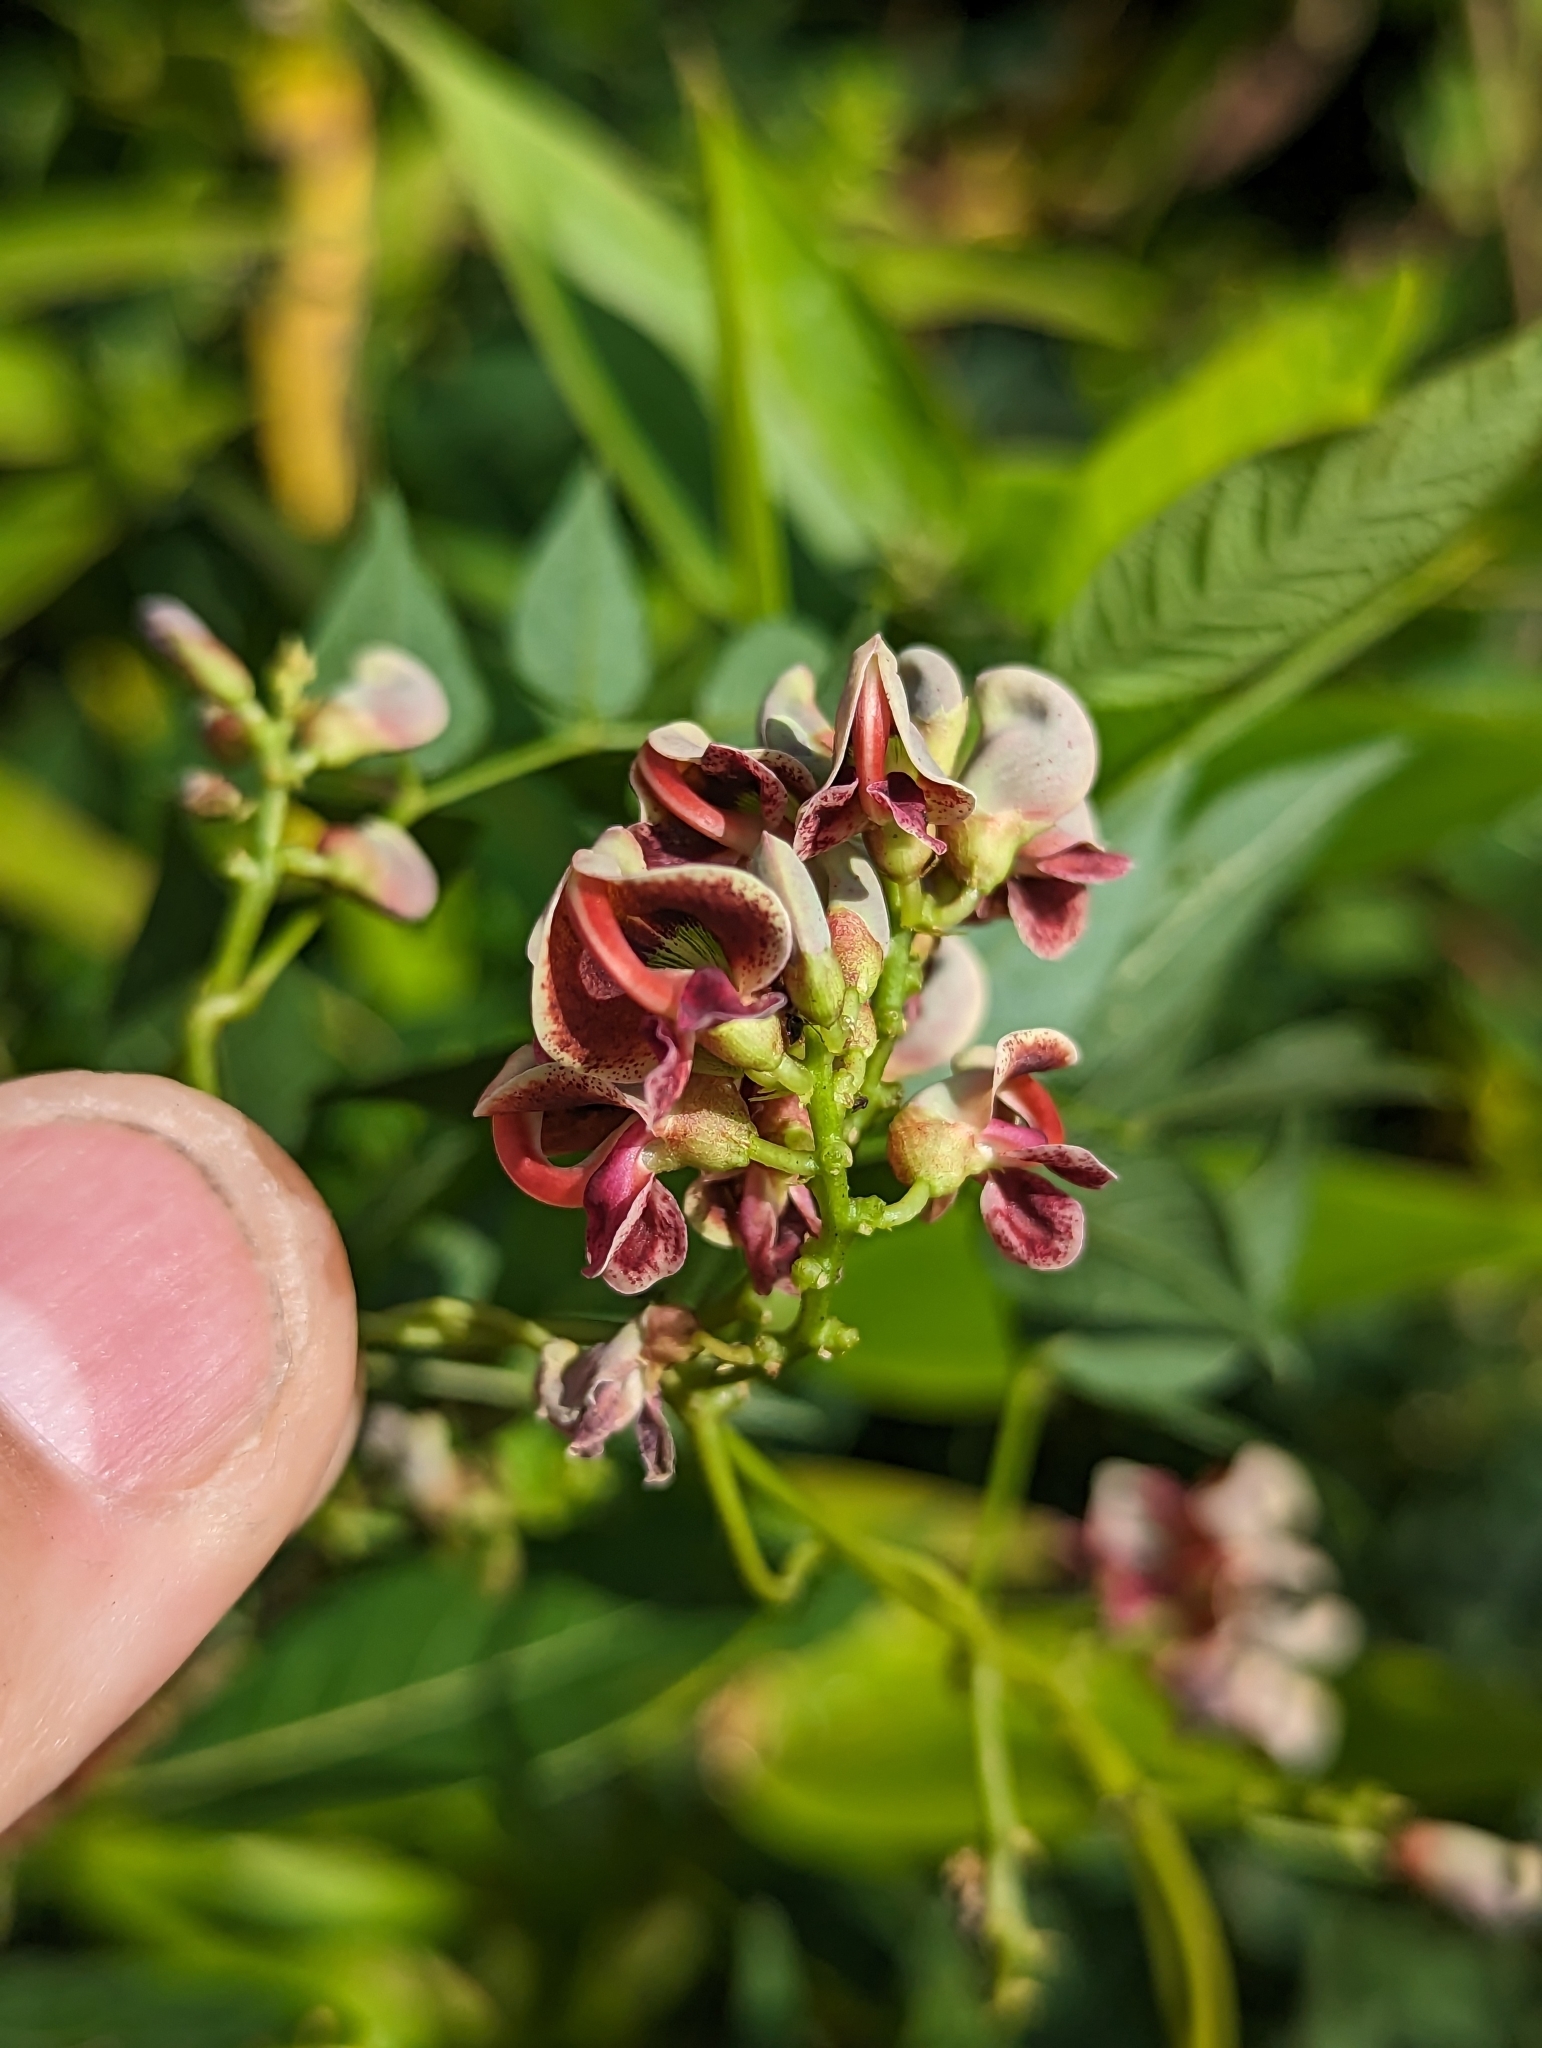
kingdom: Plantae
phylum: Tracheophyta
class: Magnoliopsida
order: Fabales
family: Fabaceae
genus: Apios
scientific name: Apios americana
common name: American potato-bean
